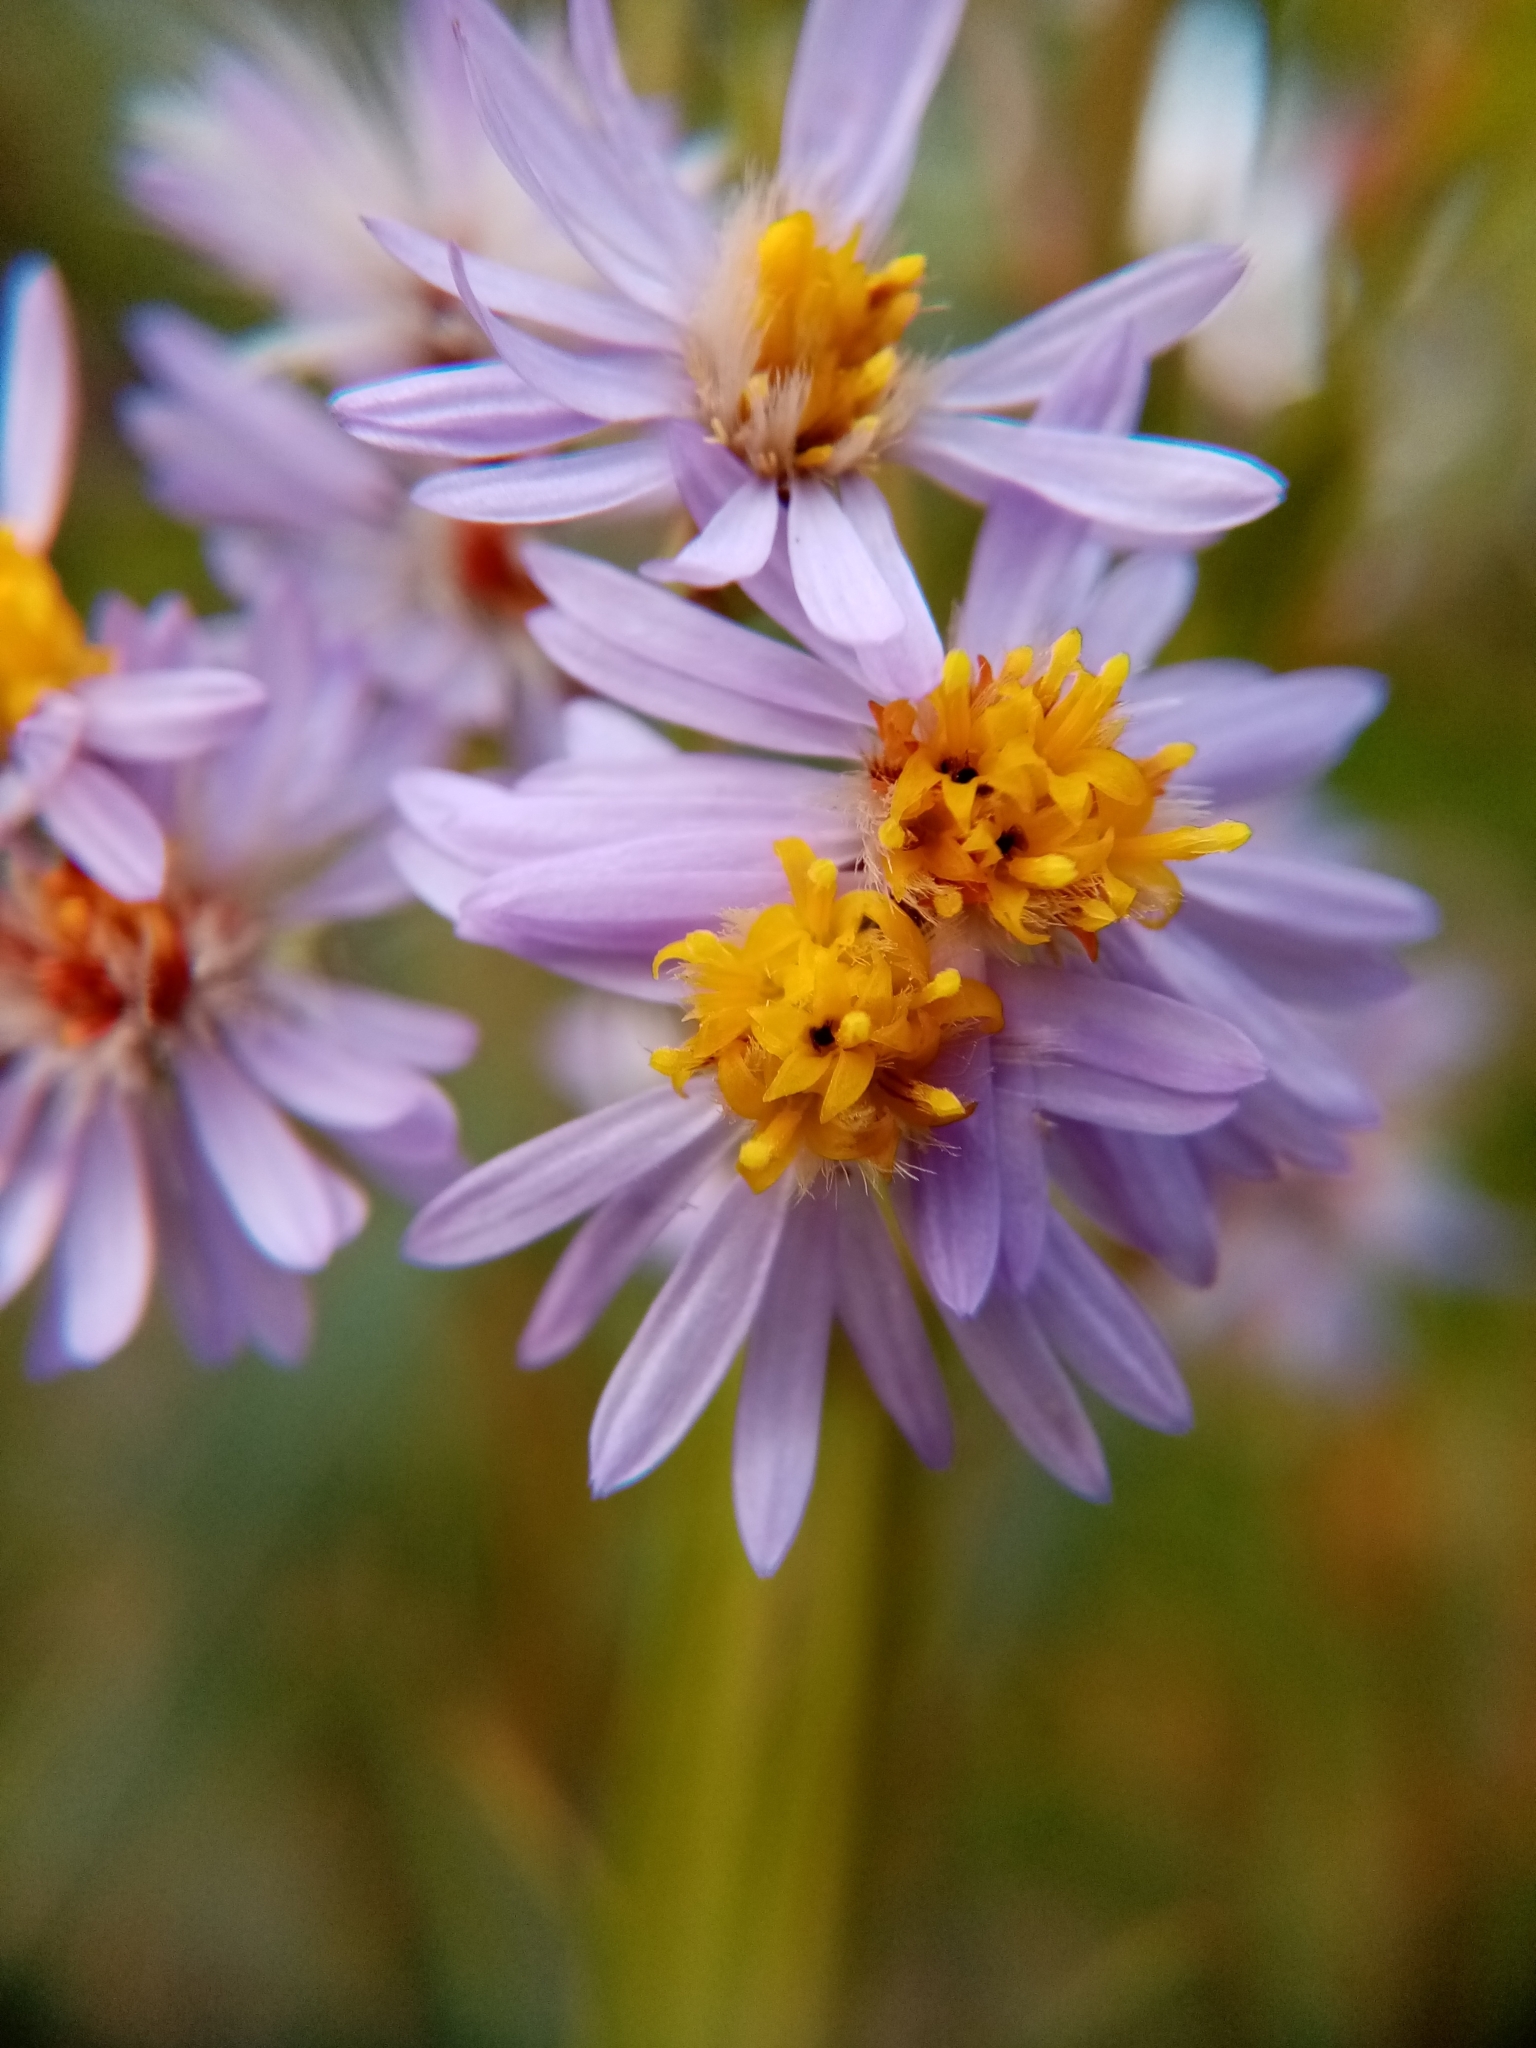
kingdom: Plantae
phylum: Tracheophyta
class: Magnoliopsida
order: Asterales
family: Asteraceae
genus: Tripolium
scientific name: Tripolium pannonicum
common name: Sea aster
